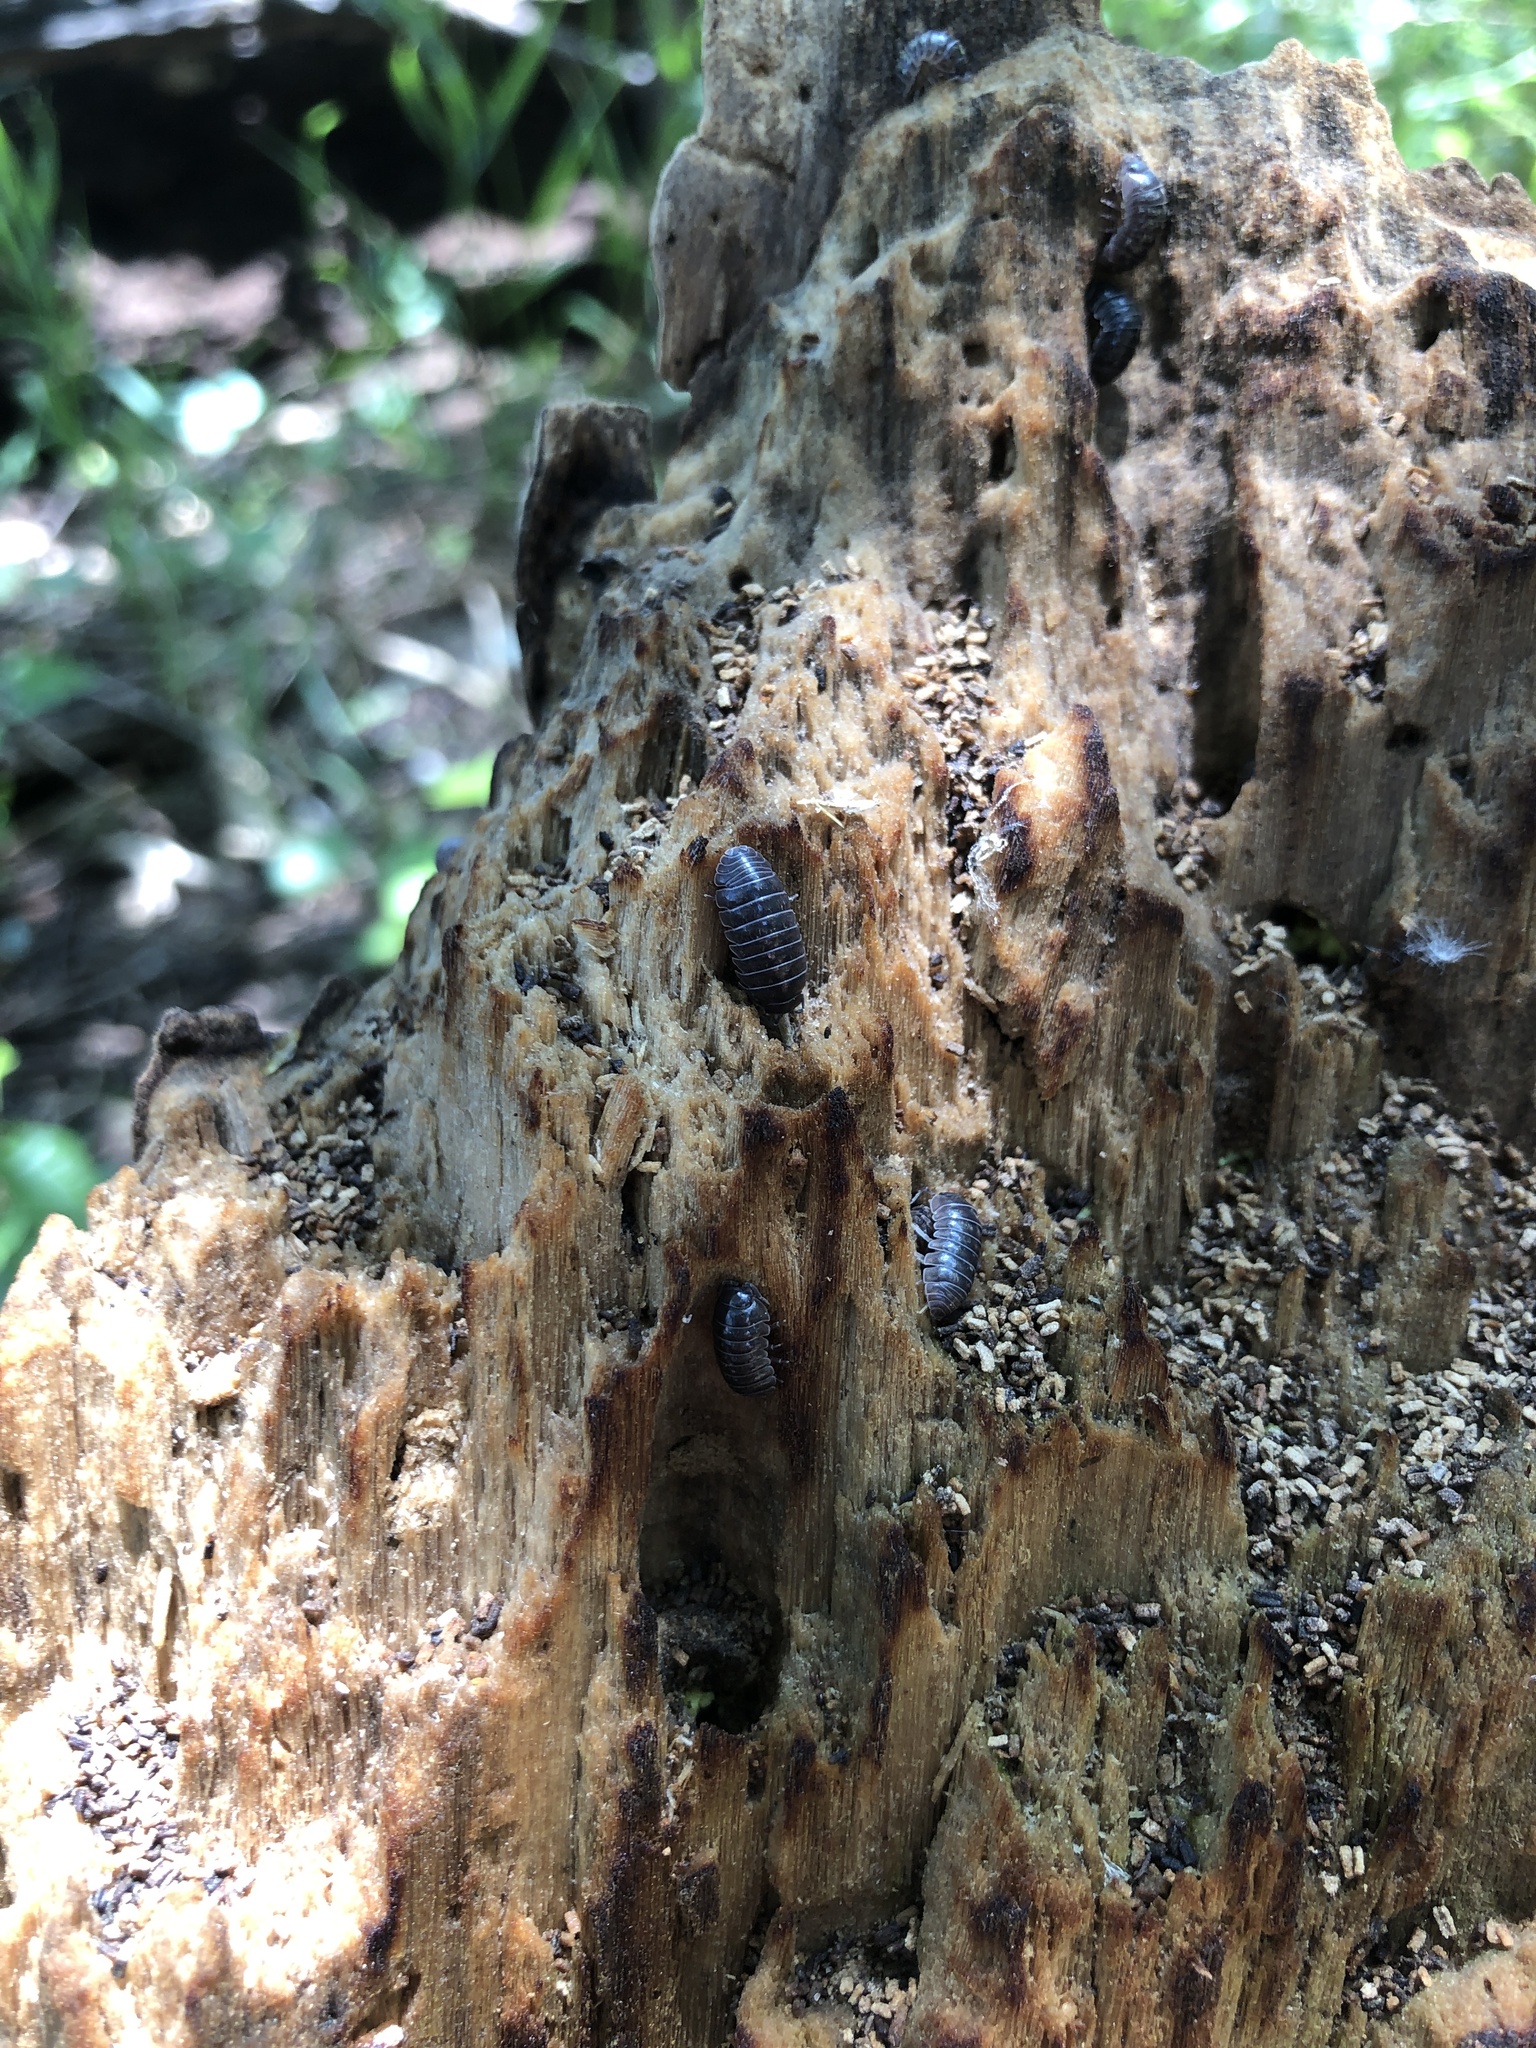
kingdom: Animalia
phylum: Arthropoda
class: Malacostraca
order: Isopoda
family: Armadillidiidae
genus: Armadillidium
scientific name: Armadillidium vulgare
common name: Common pill woodlouse
